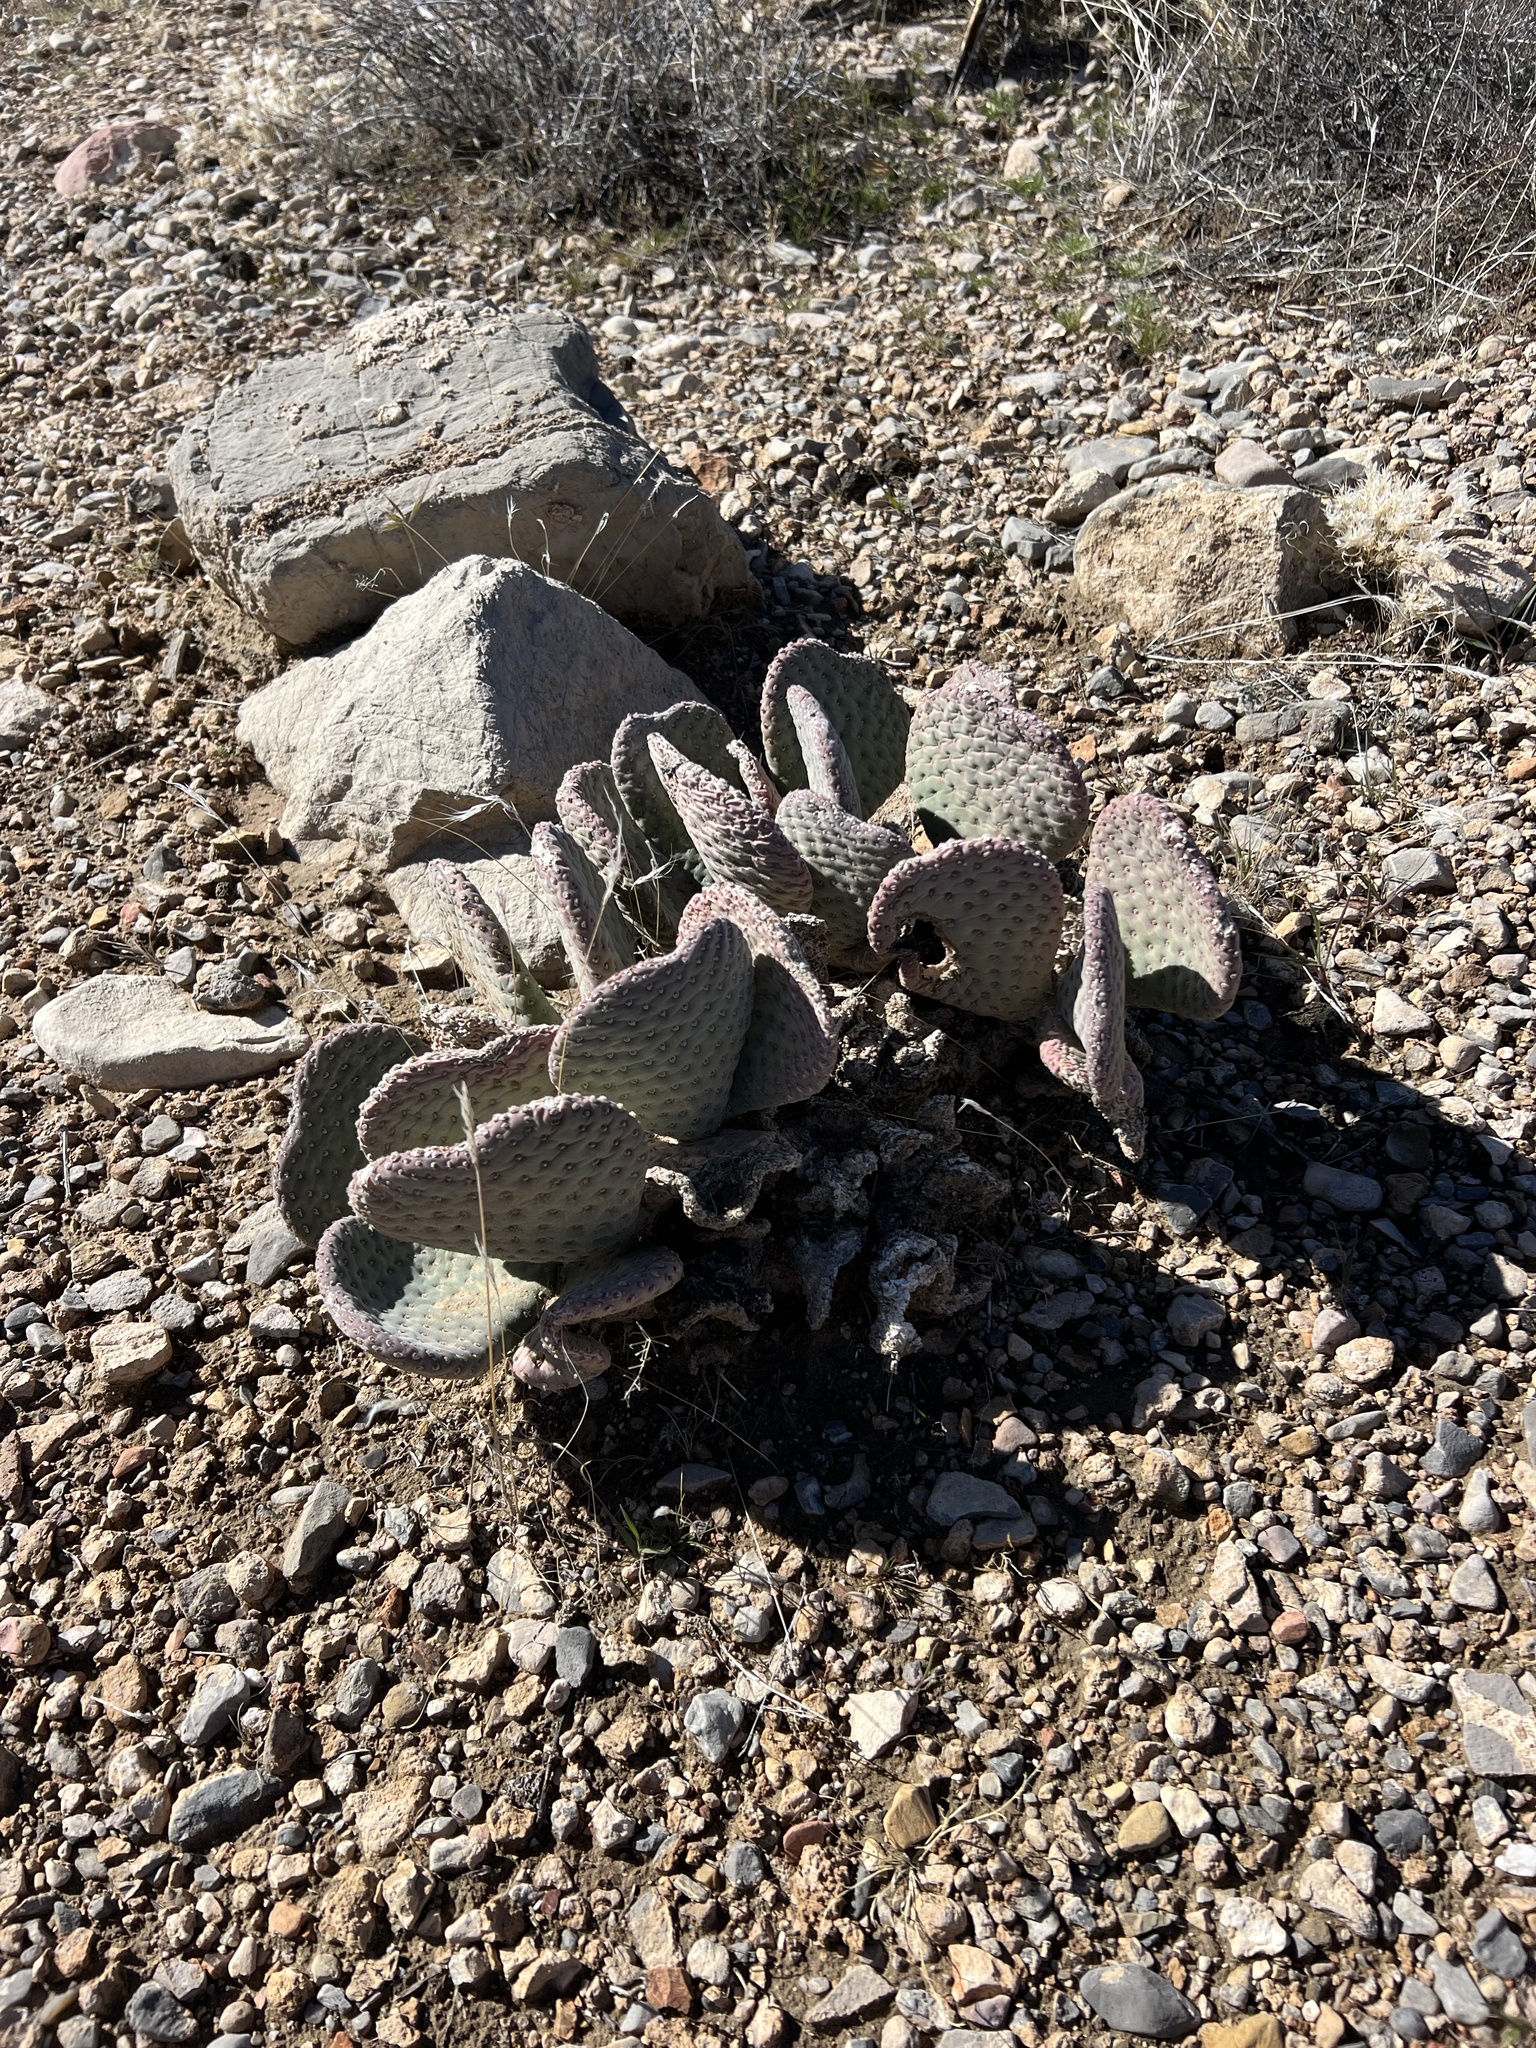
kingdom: Plantae
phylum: Tracheophyta
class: Magnoliopsida
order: Caryophyllales
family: Cactaceae
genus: Opuntia
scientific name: Opuntia basilaris
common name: Beavertail prickly-pear
